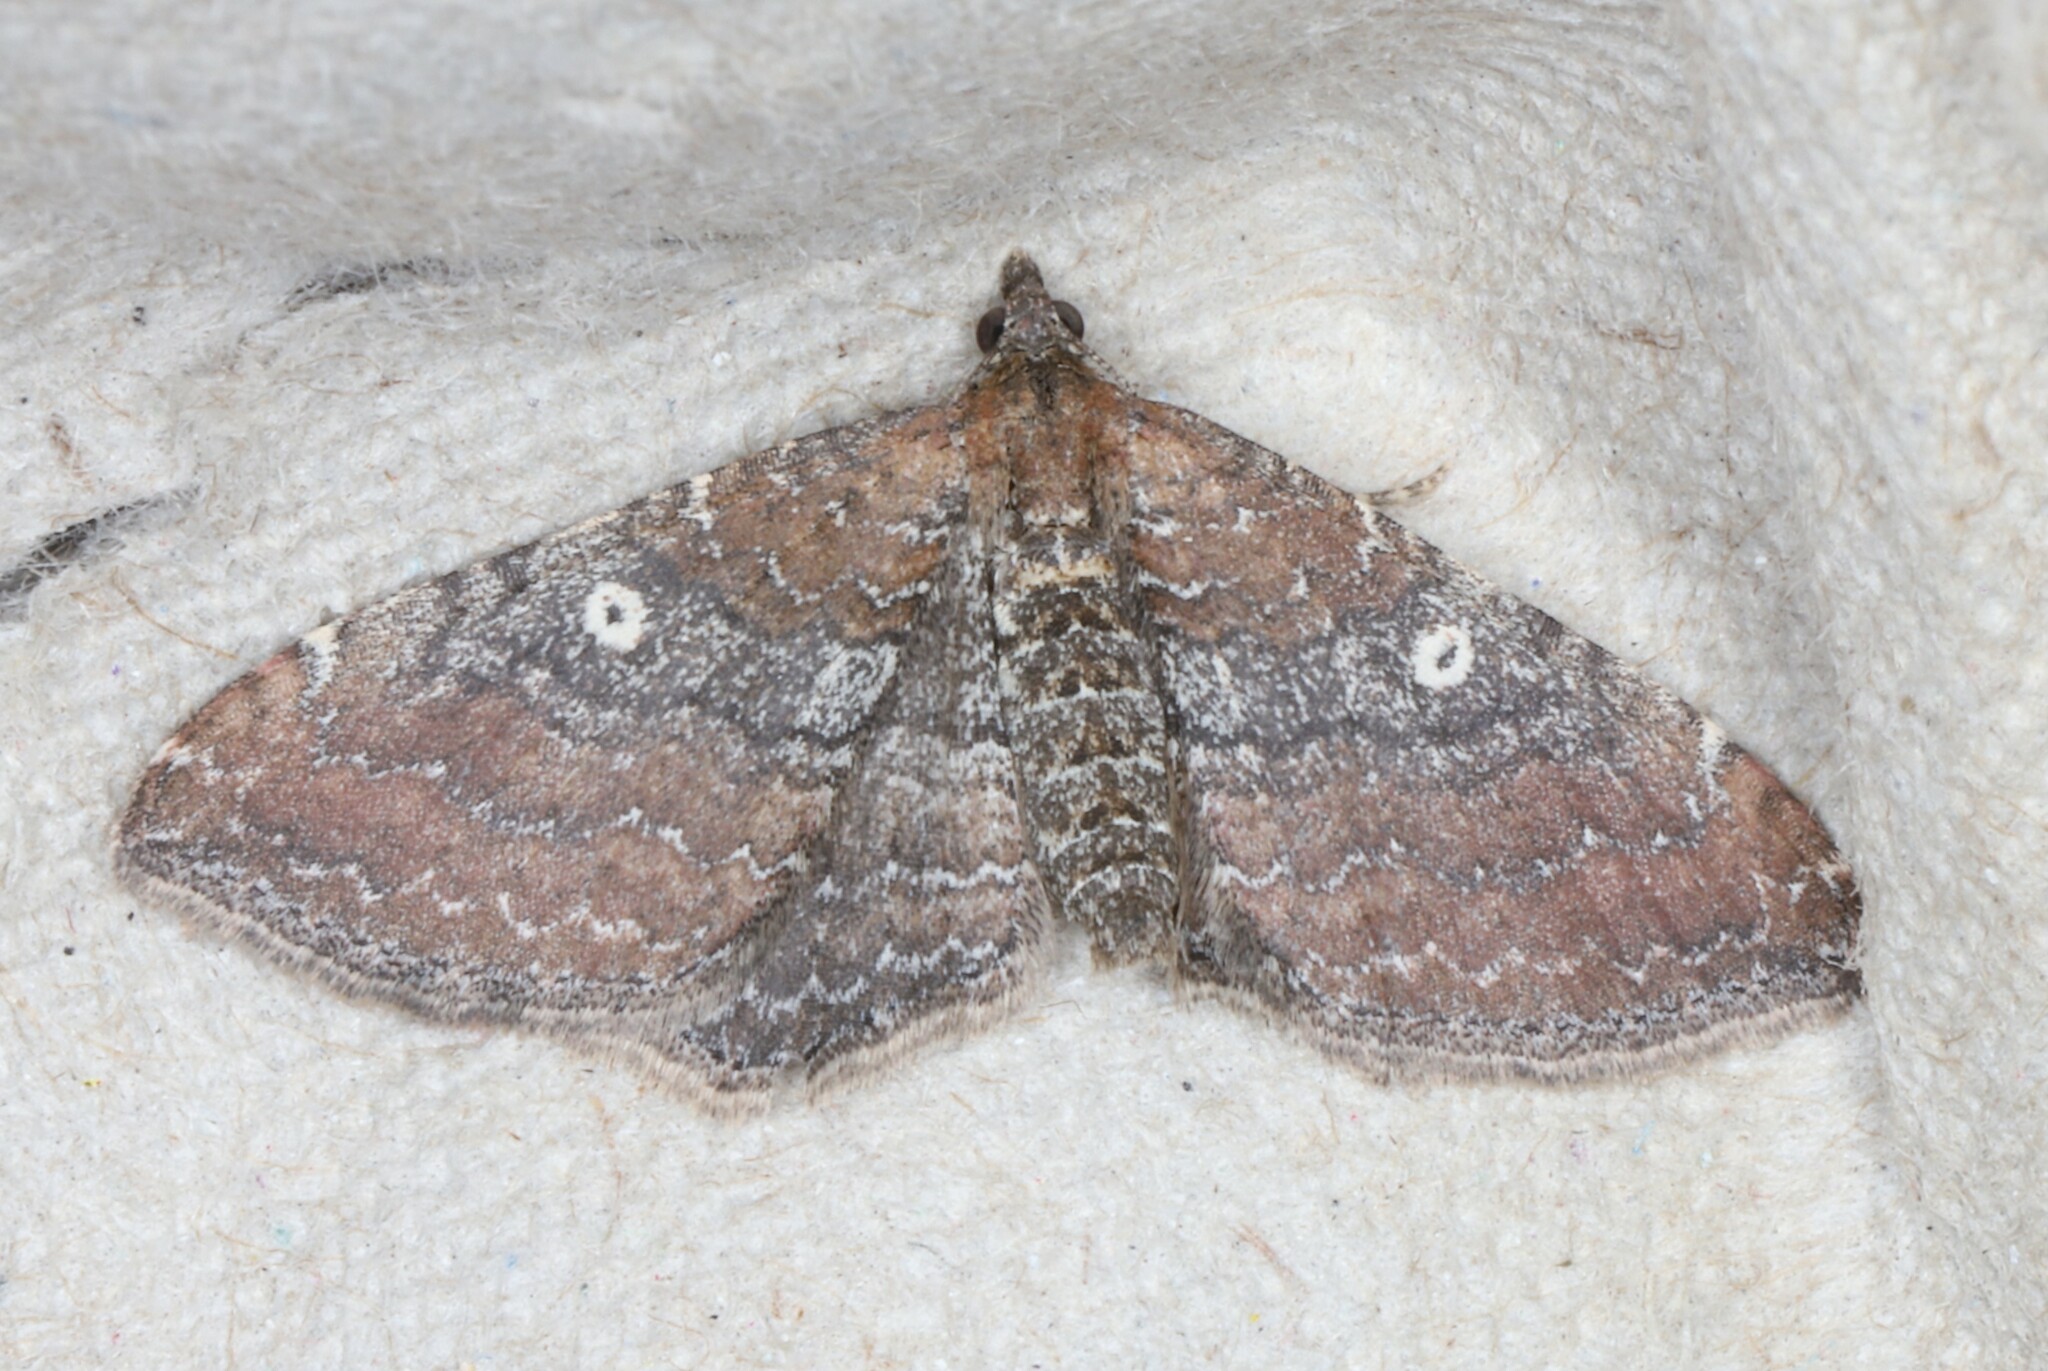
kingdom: Animalia
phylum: Arthropoda
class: Insecta
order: Lepidoptera
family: Geometridae
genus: Orthonama
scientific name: Orthonama obstipata
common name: The gem
